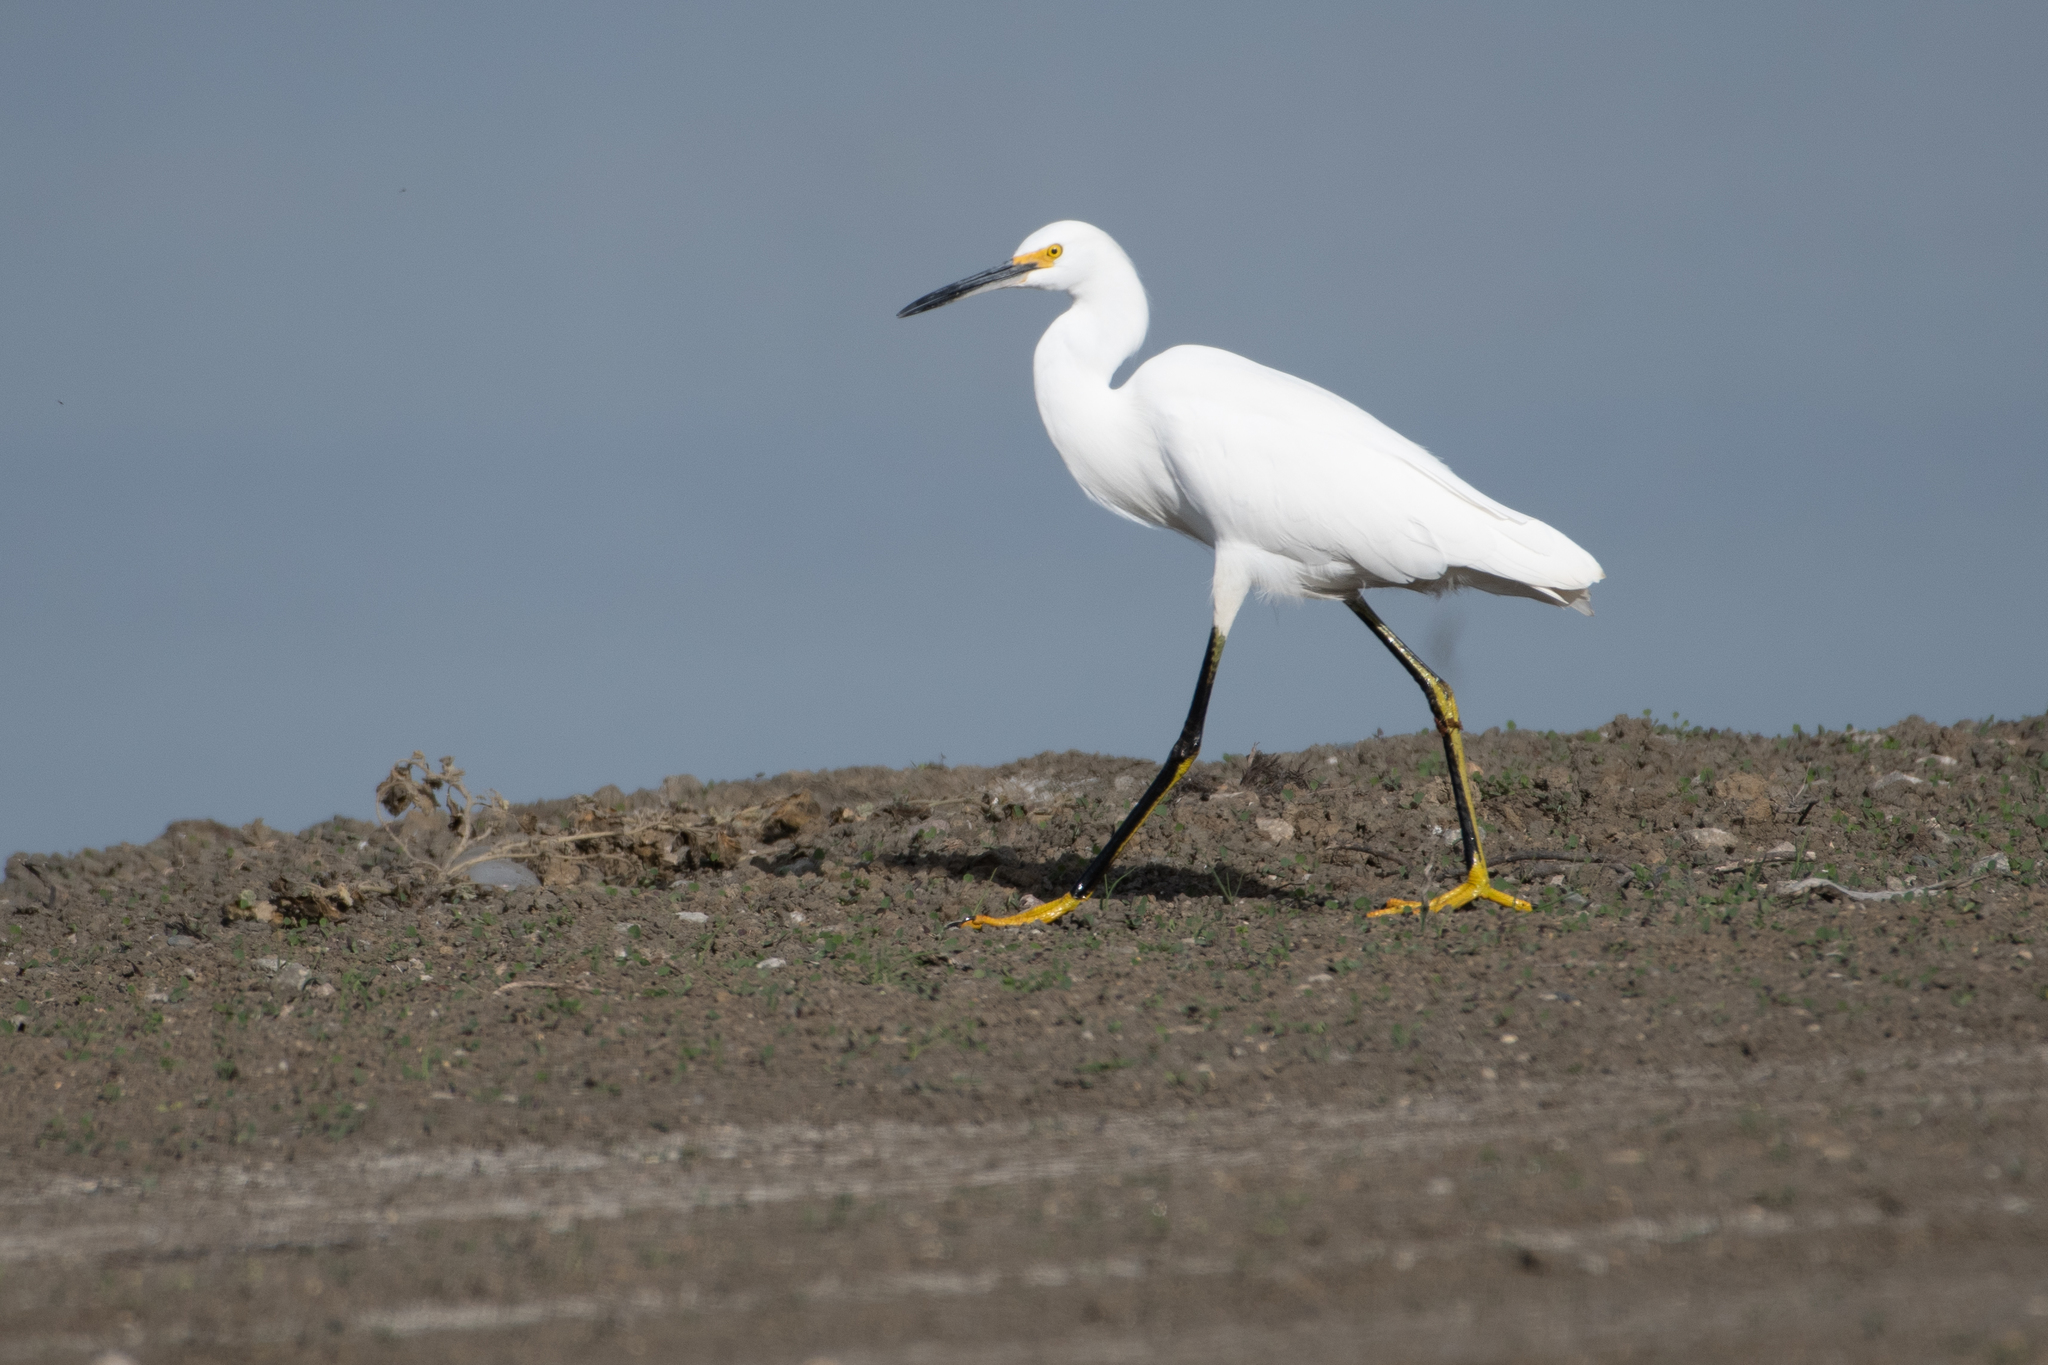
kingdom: Animalia
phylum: Chordata
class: Aves
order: Pelecaniformes
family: Ardeidae
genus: Egretta
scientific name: Egretta thula
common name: Snowy egret
